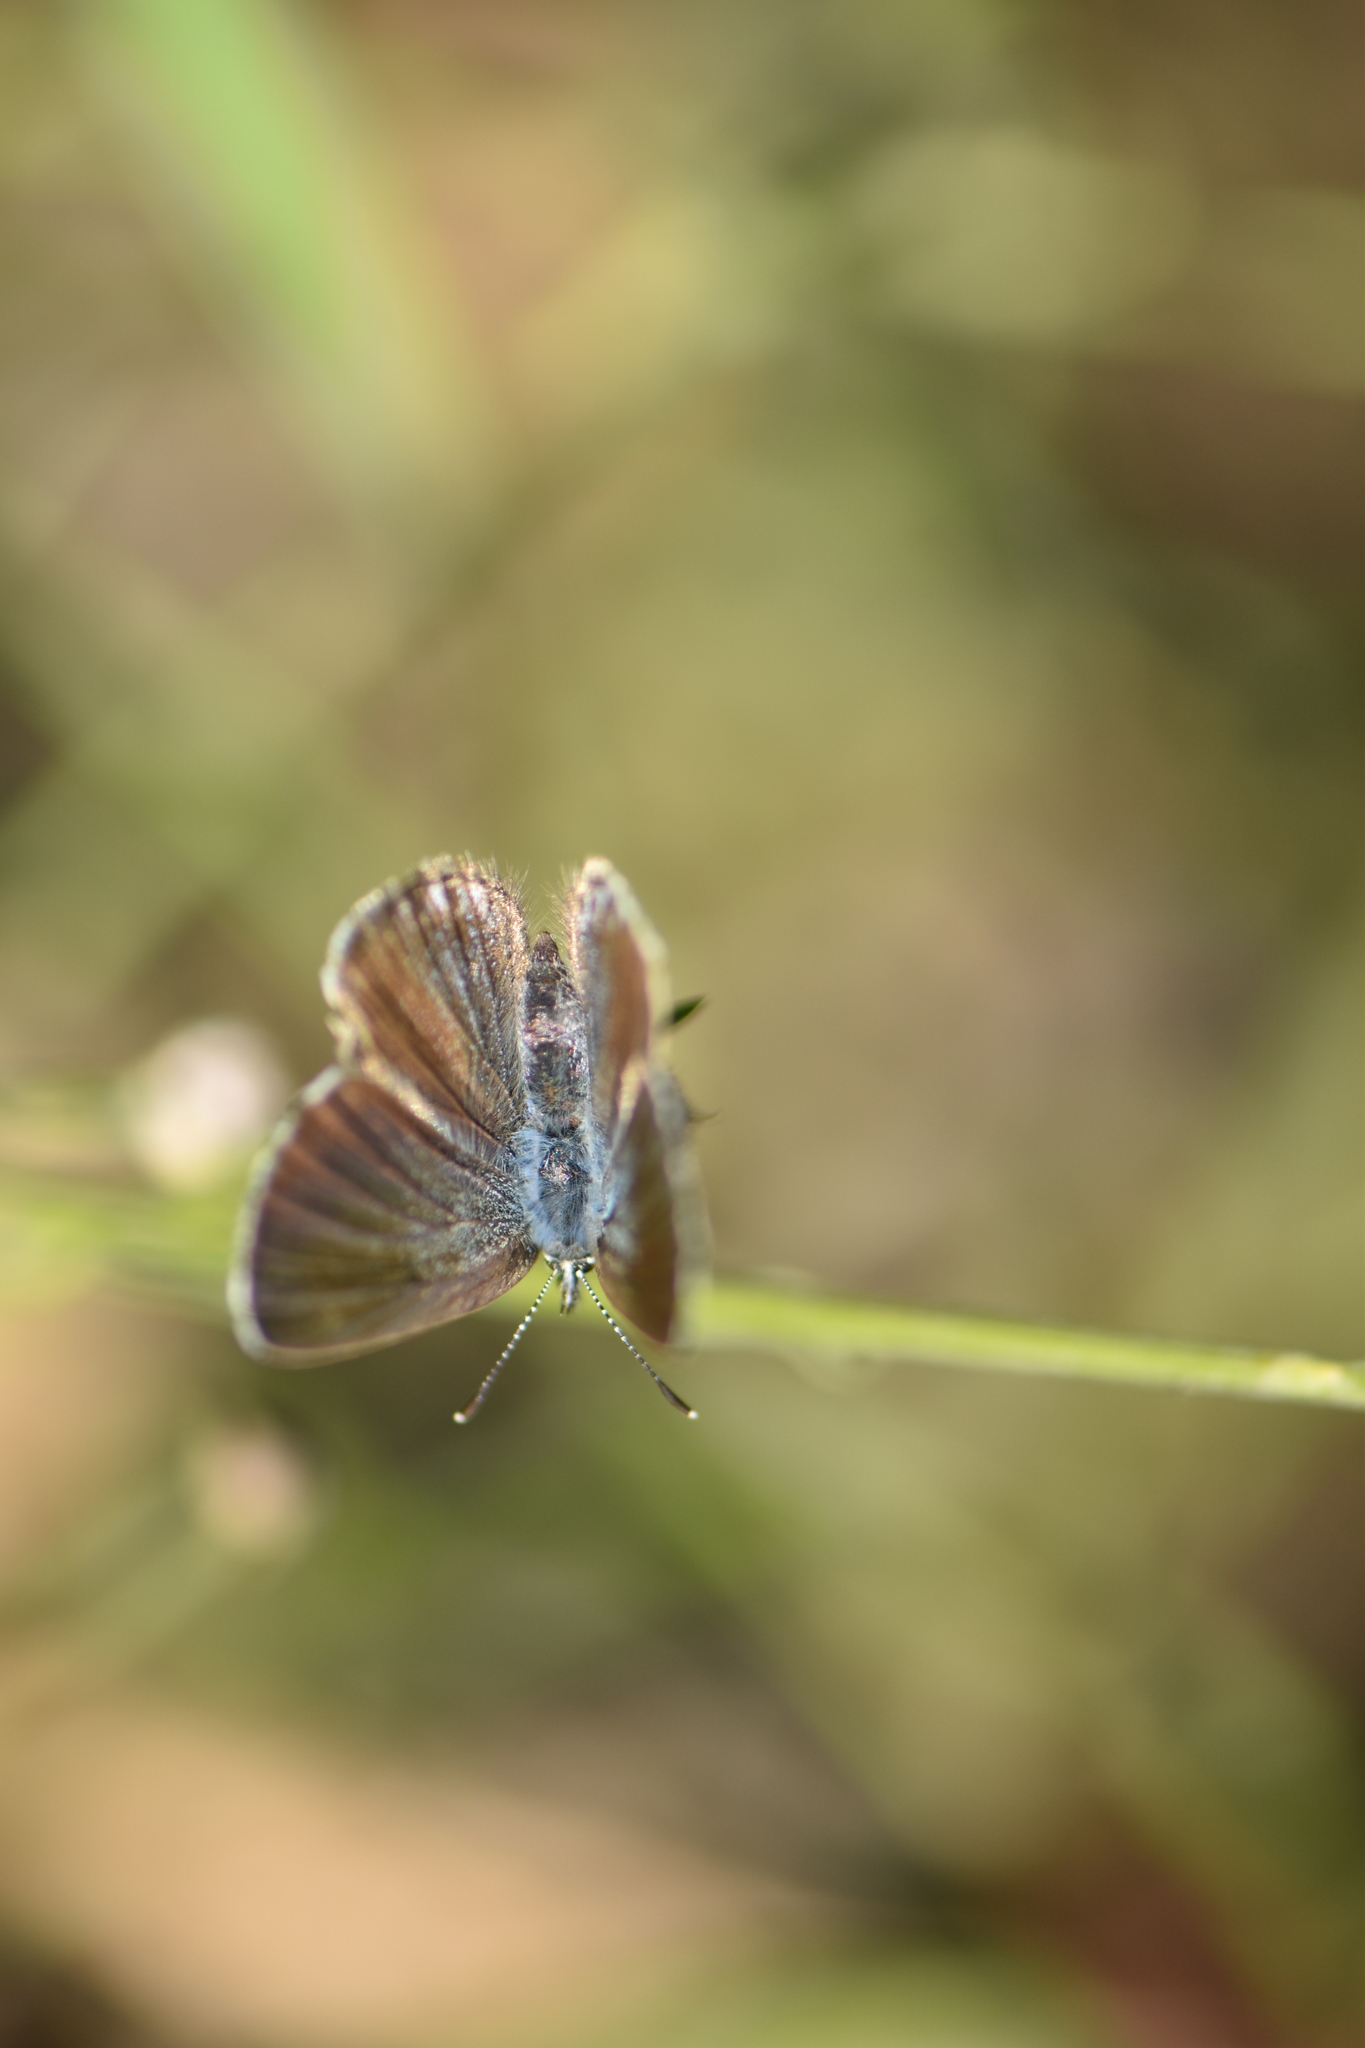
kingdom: Animalia
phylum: Arthropoda
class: Insecta
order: Lepidoptera
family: Lycaenidae
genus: Glaucopsyche
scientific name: Glaucopsyche melanops
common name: Black-eyed blue
